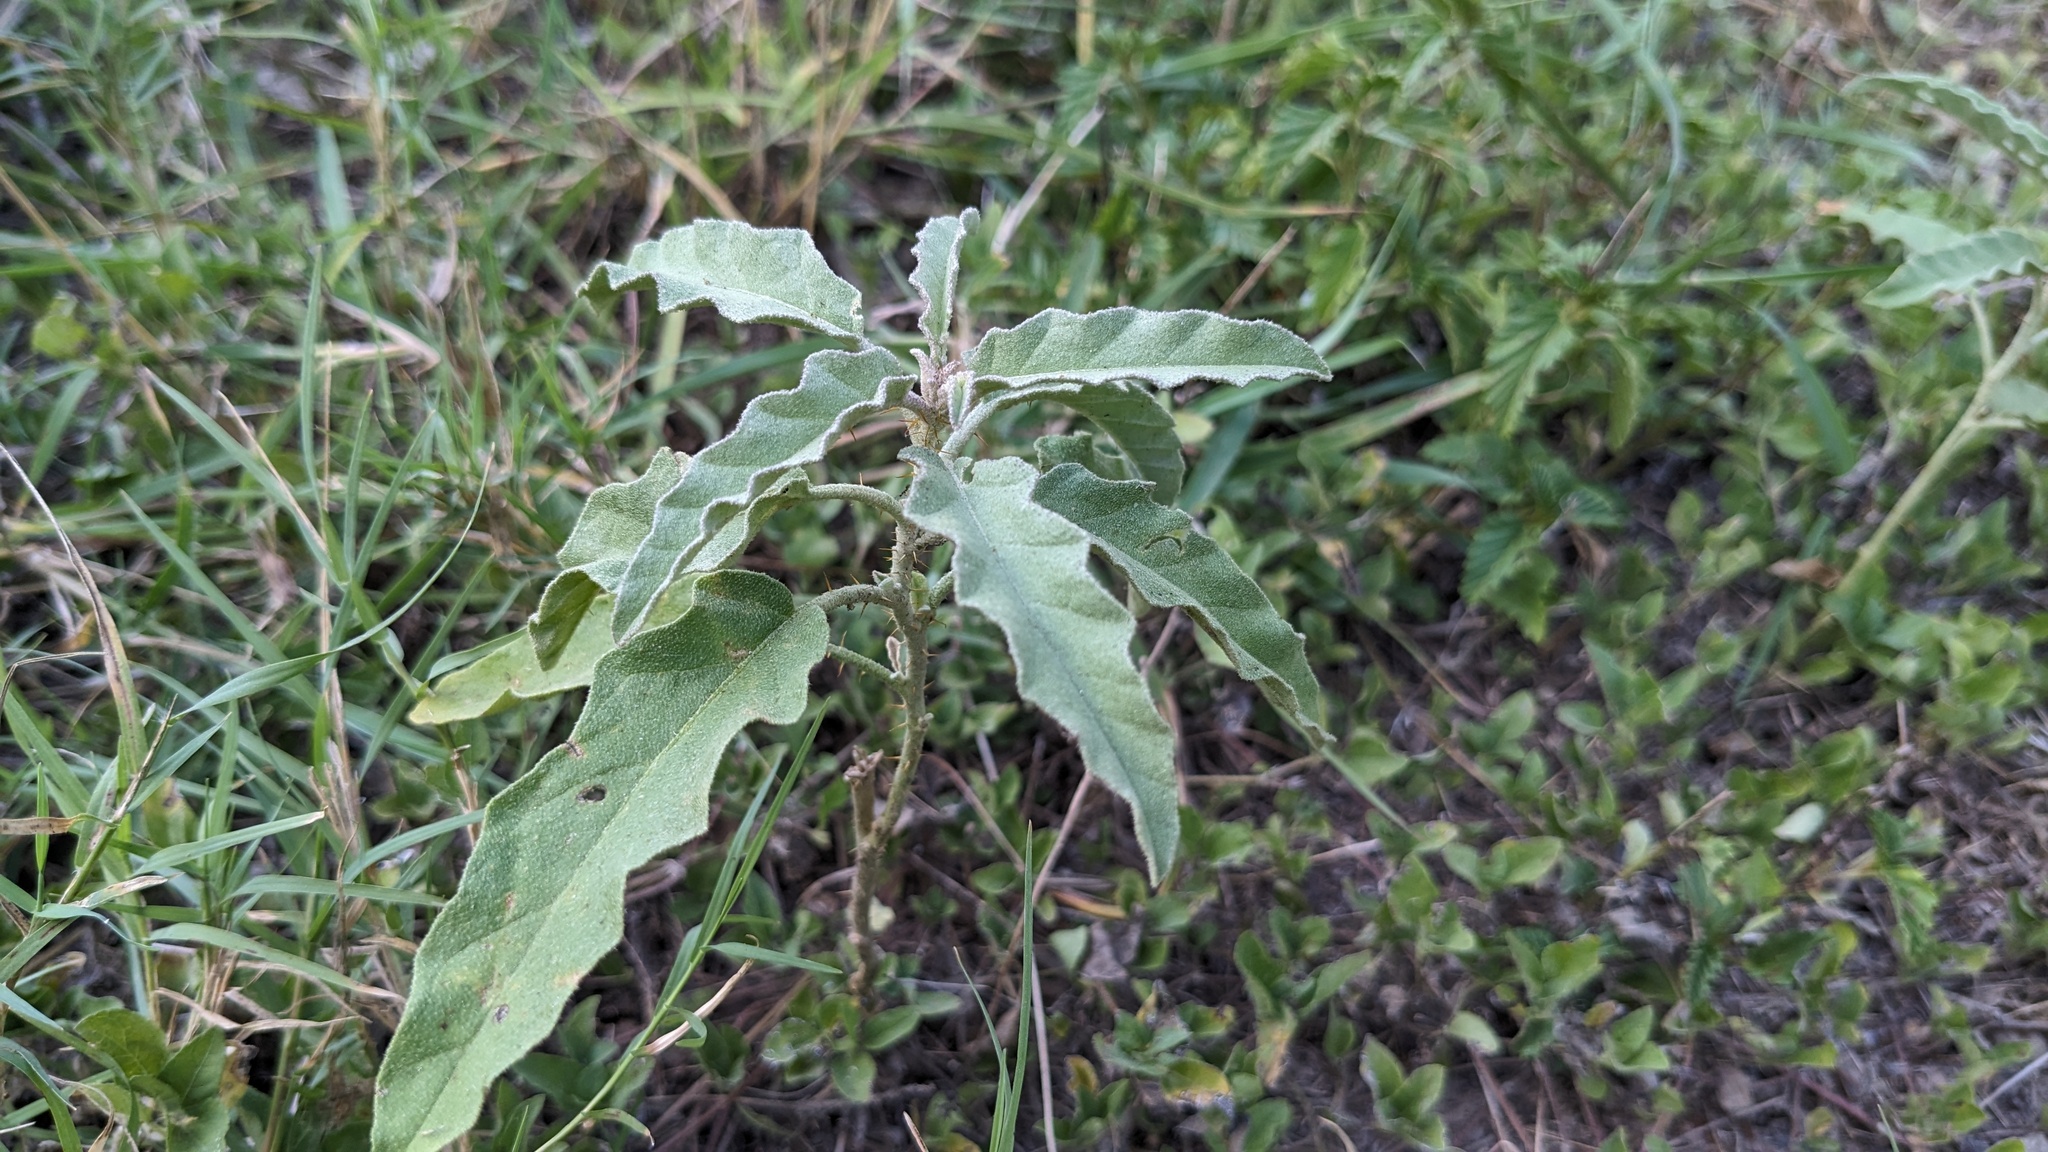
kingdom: Plantae
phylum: Tracheophyta
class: Magnoliopsida
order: Solanales
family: Solanaceae
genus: Solanum
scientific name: Solanum elaeagnifolium
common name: Silverleaf nightshade
